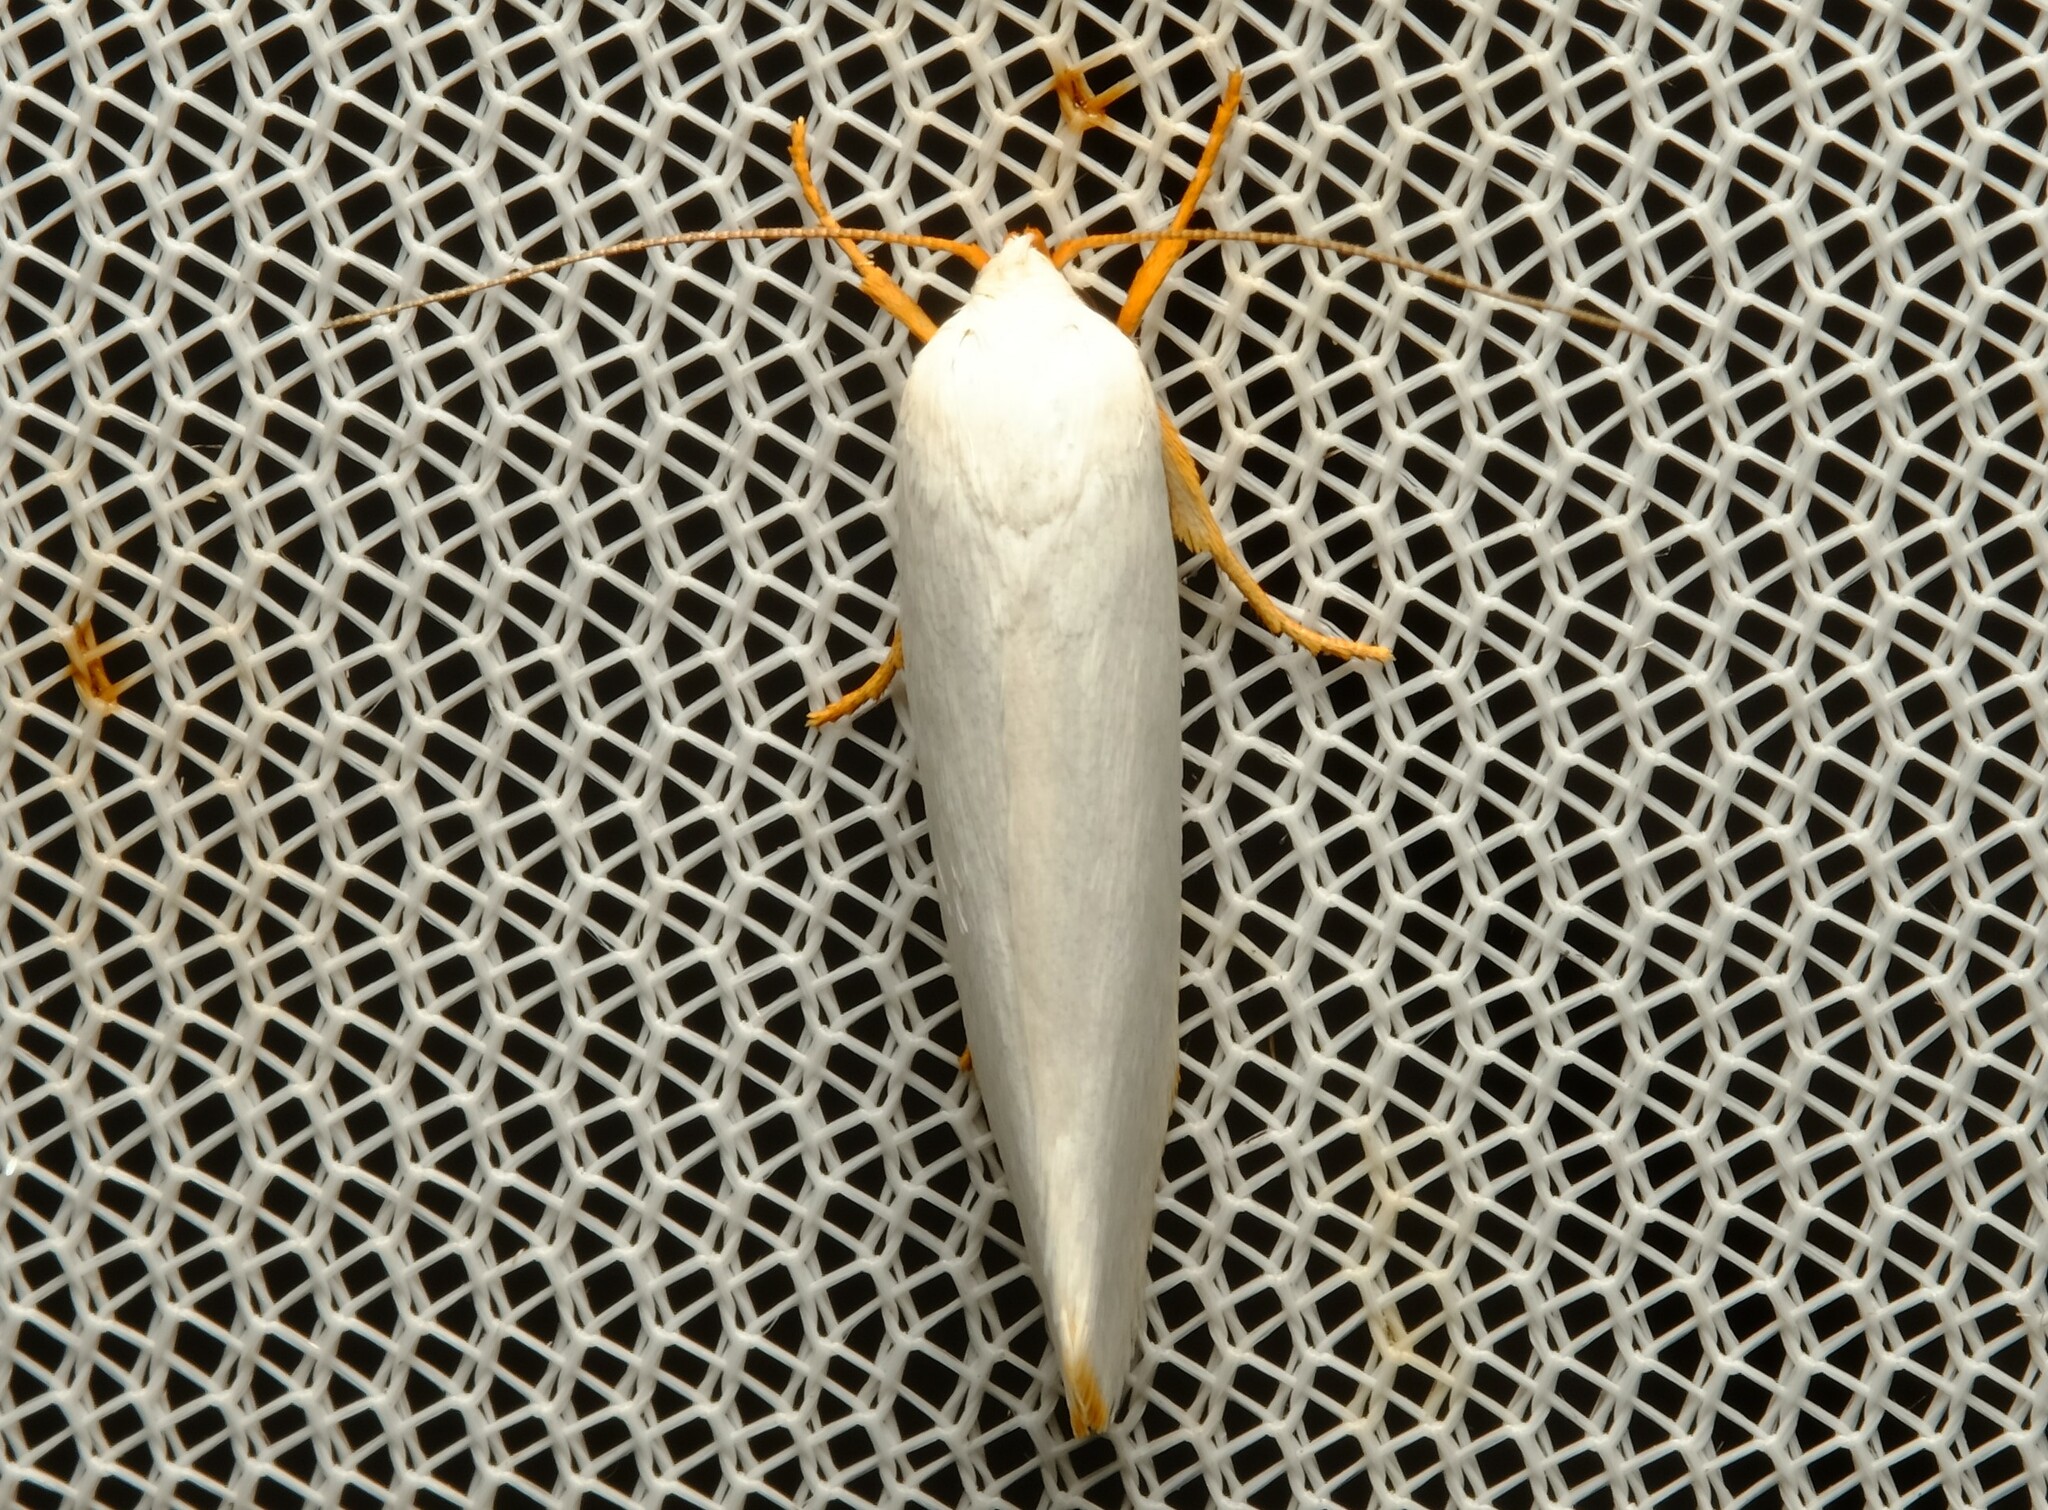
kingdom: Animalia
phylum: Arthropoda
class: Insecta
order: Lepidoptera
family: Xyloryctidae
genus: Xylorycta
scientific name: Xylorycta luteotactella
